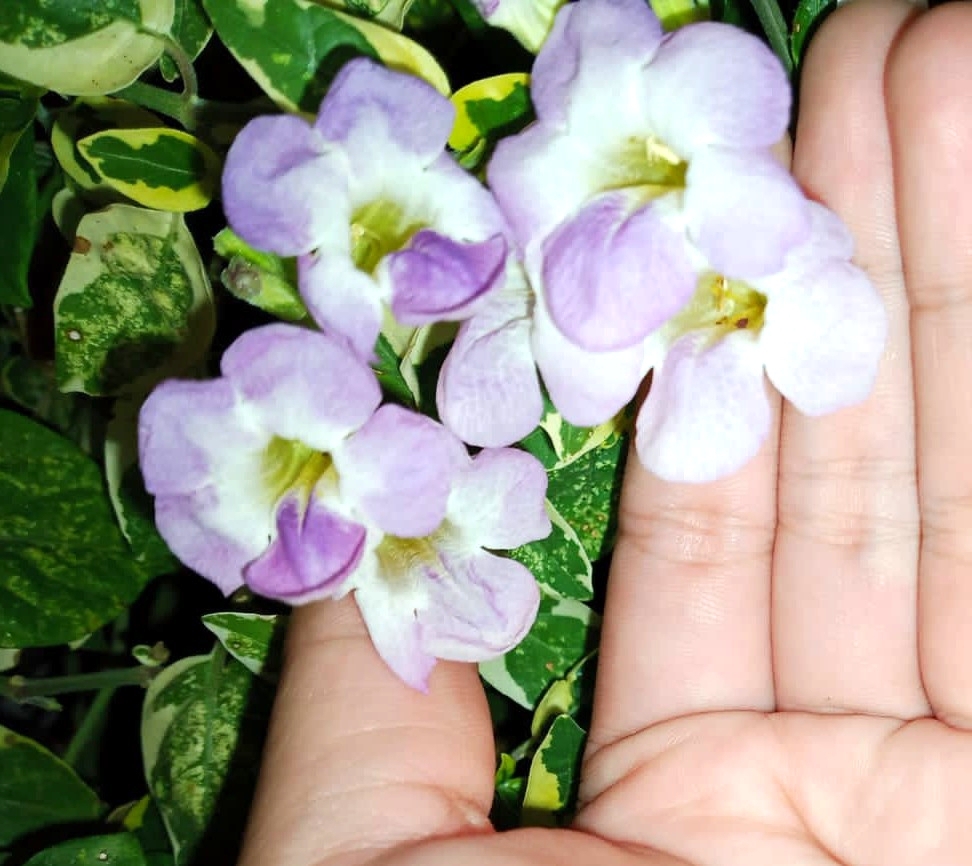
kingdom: Plantae
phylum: Tracheophyta
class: Magnoliopsida
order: Lamiales
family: Acanthaceae
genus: Asystasia
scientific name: Asystasia gangetica
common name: Chinese violet
